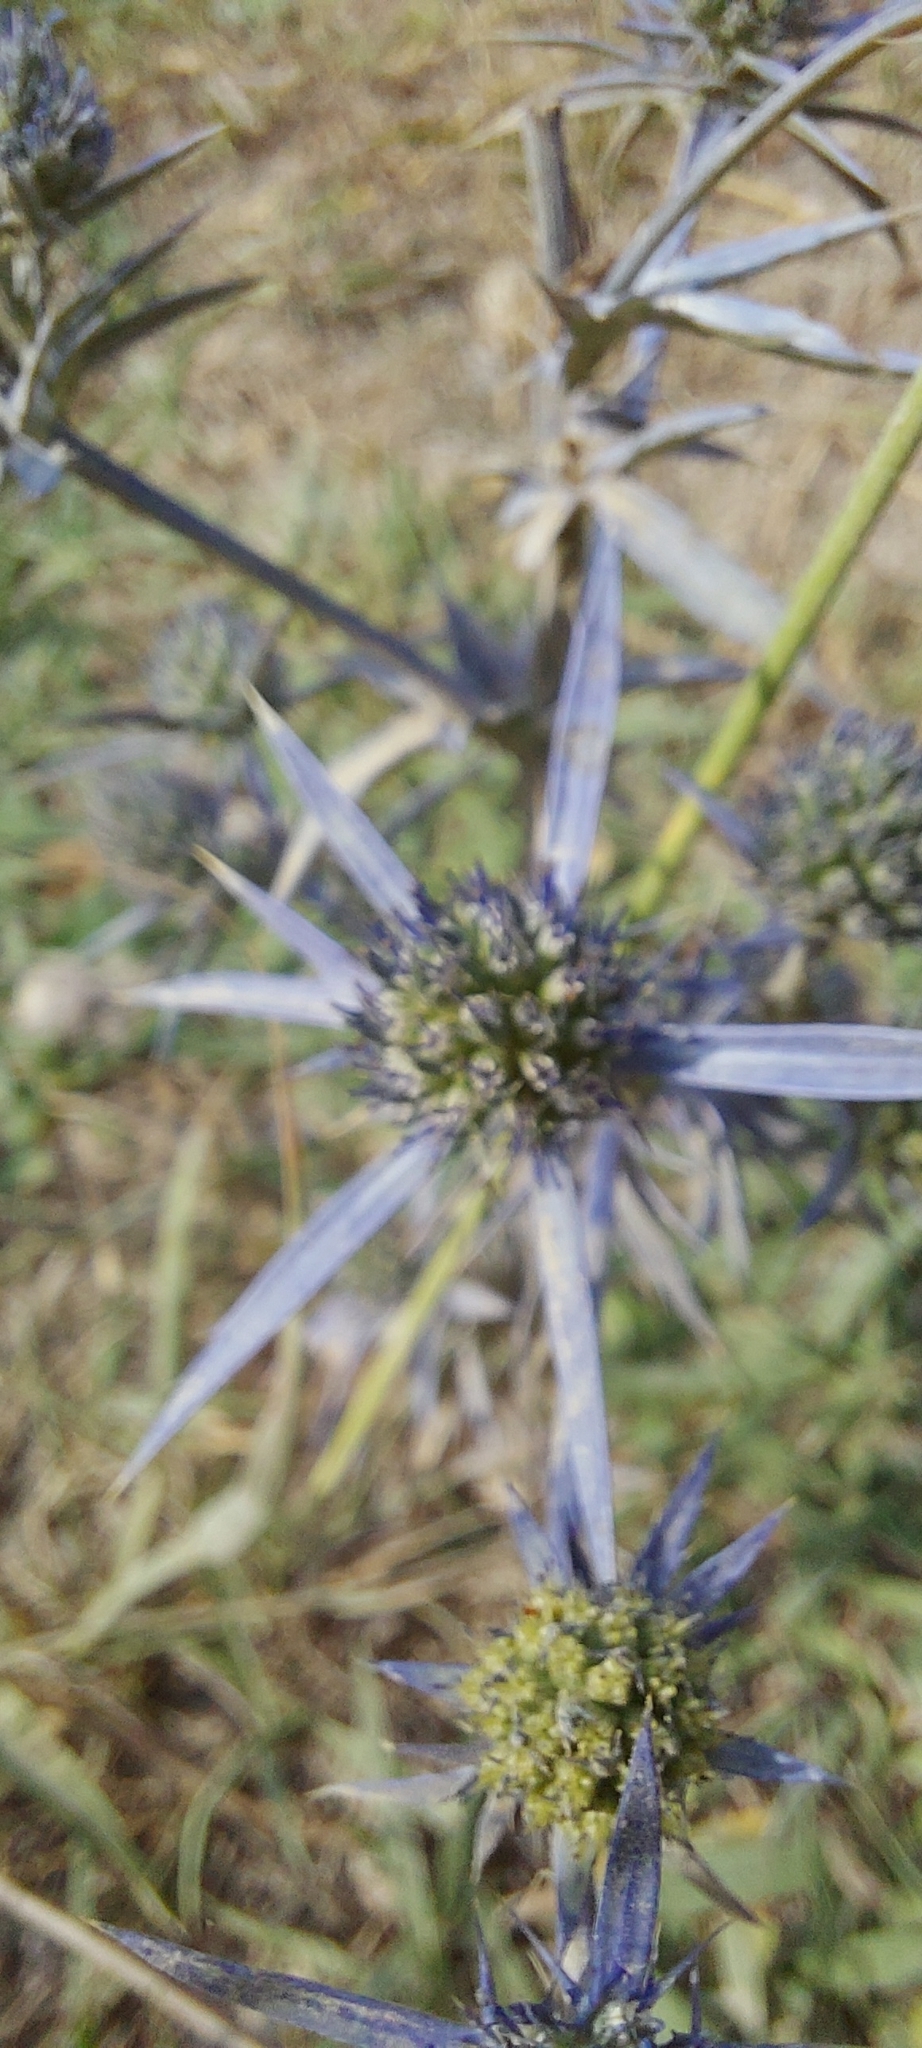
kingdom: Plantae
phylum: Tracheophyta
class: Magnoliopsida
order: Apiales
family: Apiaceae
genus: Eryngium
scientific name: Eryngium amethystinum
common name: Amethyst eryngo
